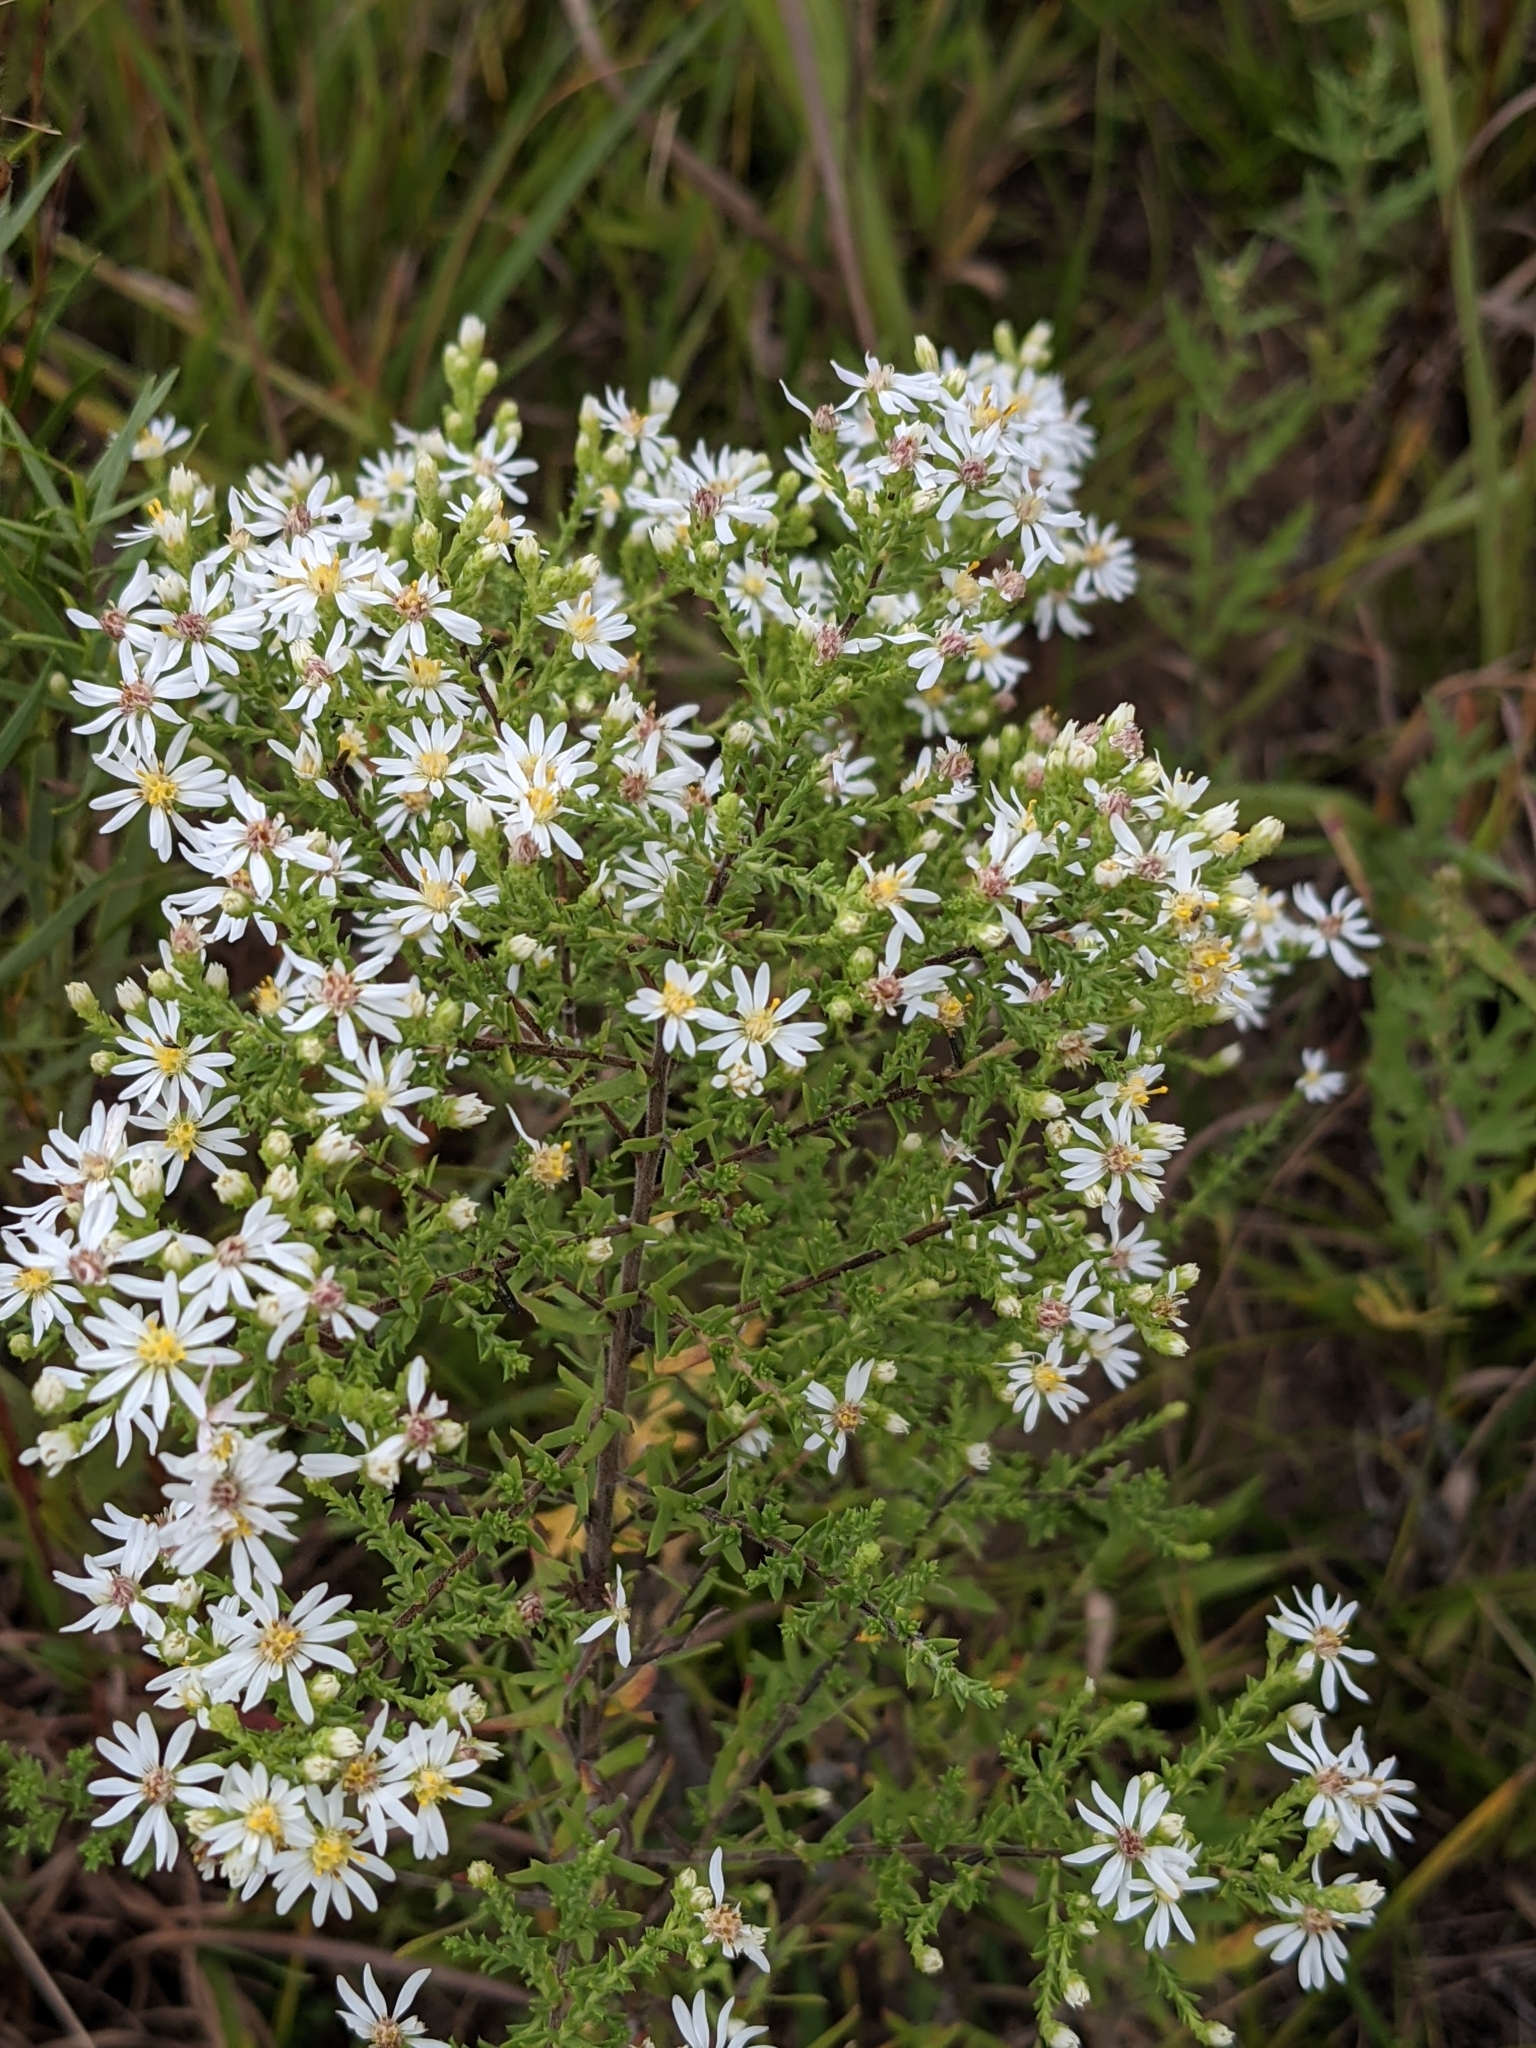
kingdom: Plantae
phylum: Tracheophyta
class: Magnoliopsida
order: Asterales
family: Asteraceae
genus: Symphyotrichum
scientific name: Symphyotrichum ericoides
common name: Heath aster
